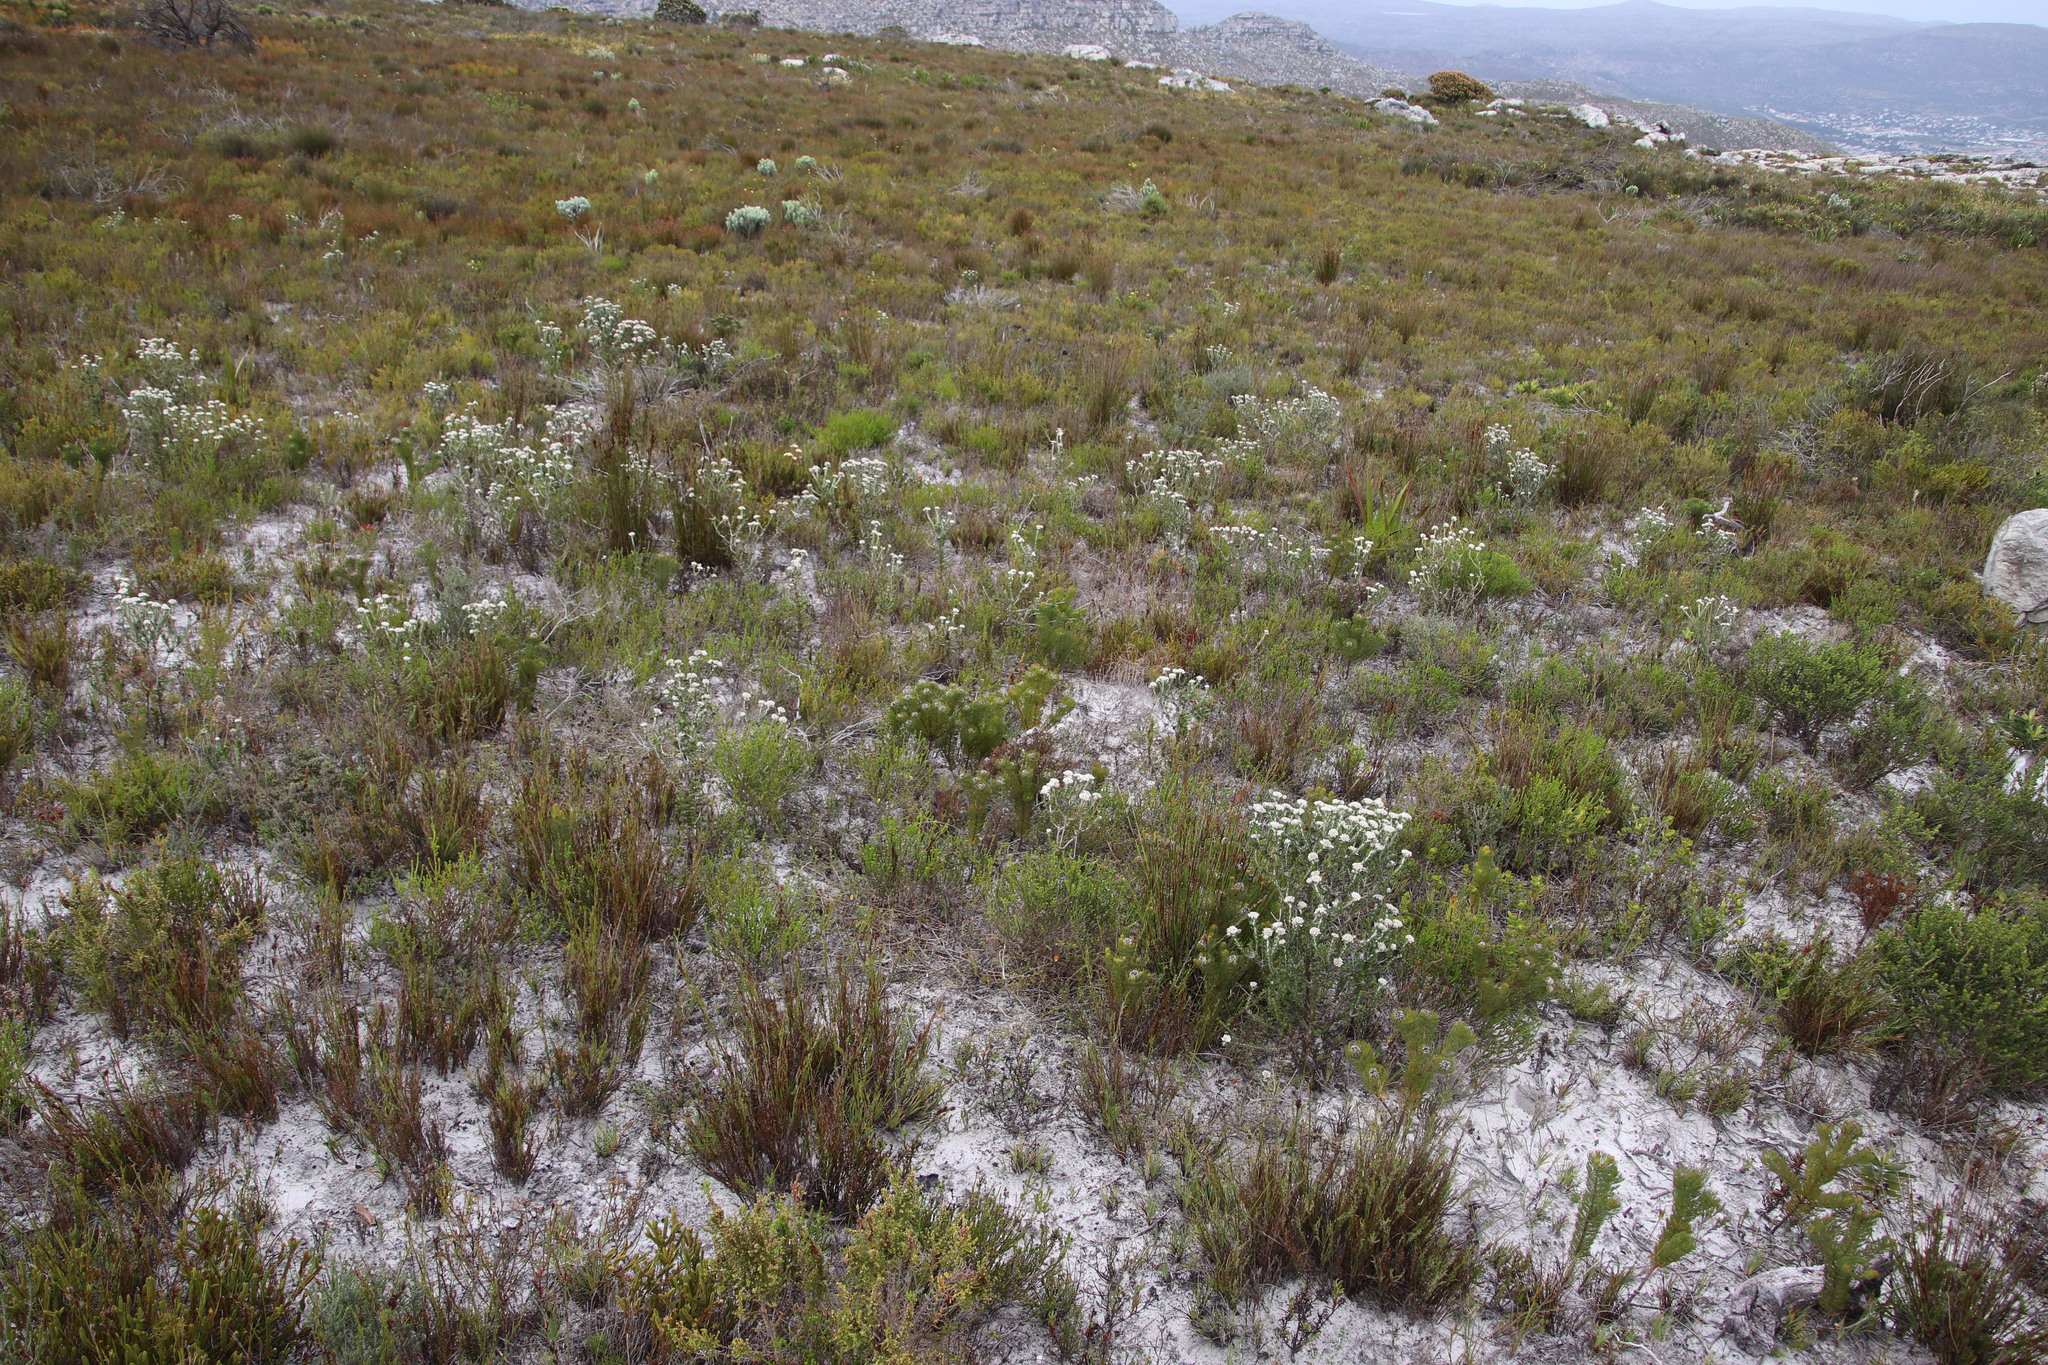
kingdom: Plantae
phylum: Tracheophyta
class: Magnoliopsida
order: Proteales
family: Proteaceae
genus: Serruria
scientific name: Serruria villosa
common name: Golden spiderhead
